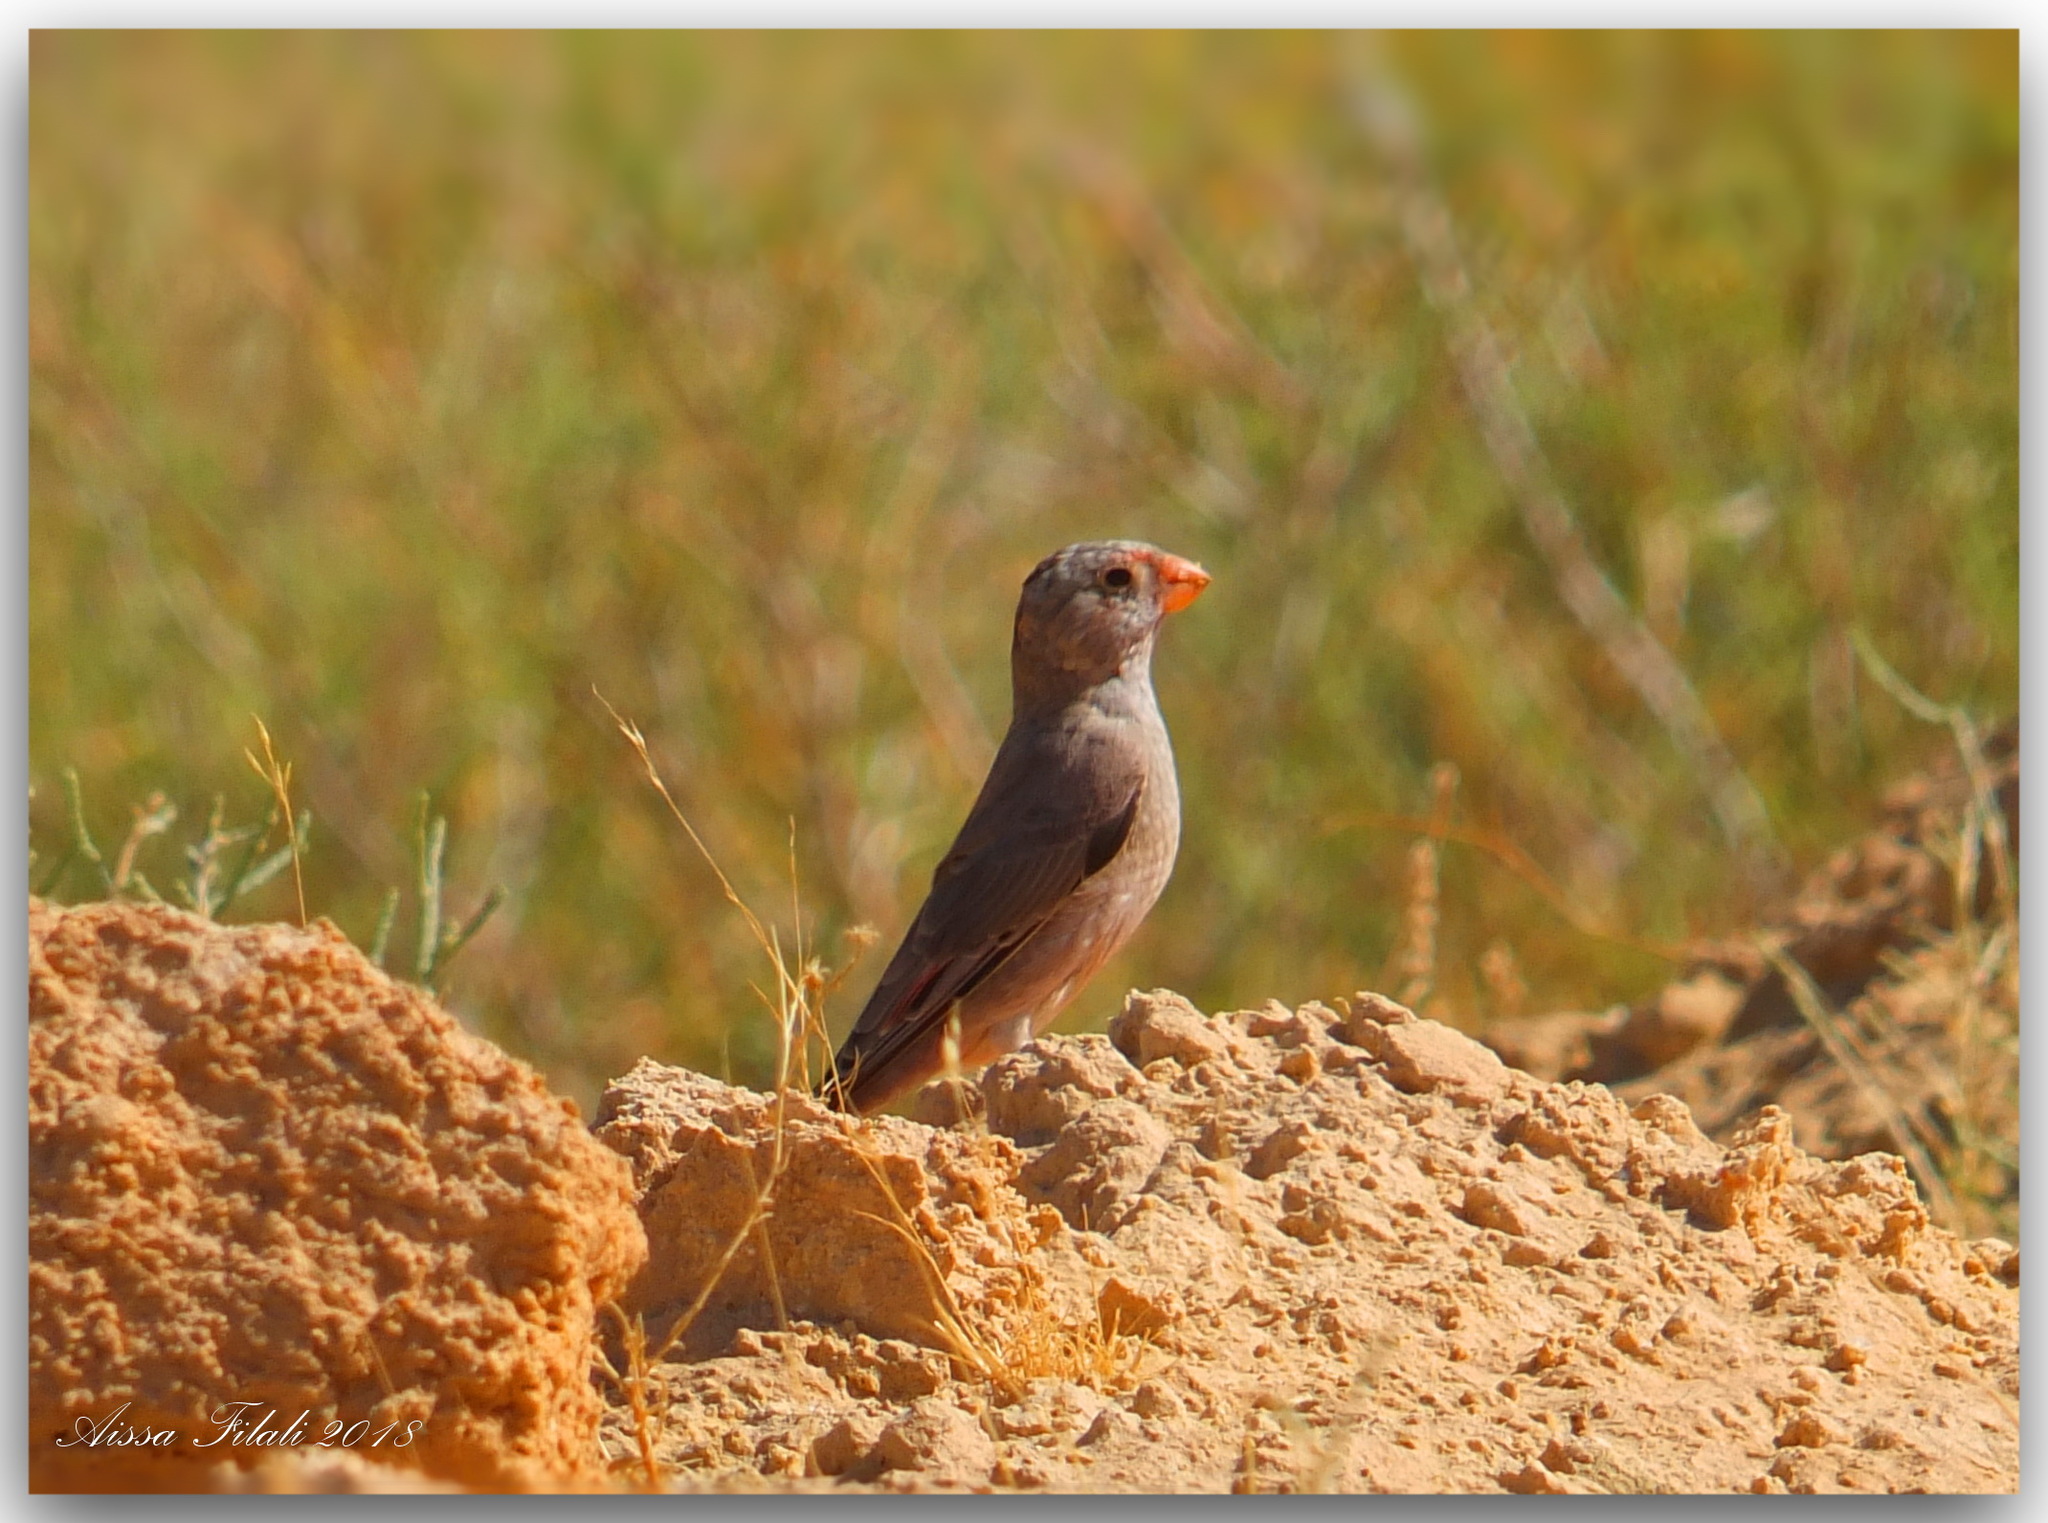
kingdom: Animalia
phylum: Chordata
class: Aves
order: Passeriformes
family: Fringillidae
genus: Bucanetes
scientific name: Bucanetes githagineus
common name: Trumpeter finch
